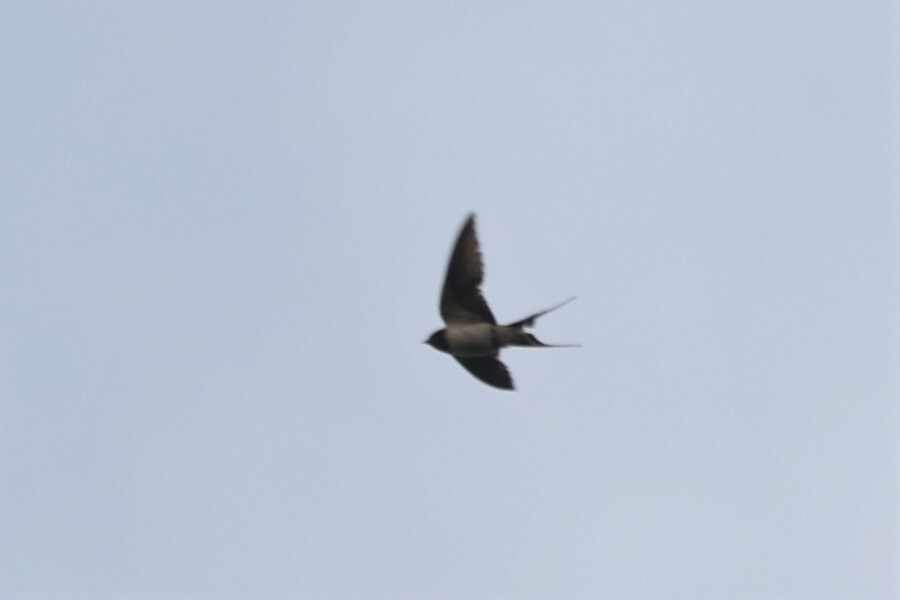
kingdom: Animalia
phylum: Chordata
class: Aves
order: Passeriformes
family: Hirundinidae
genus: Hirundo
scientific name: Hirundo rustica
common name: Barn swallow
